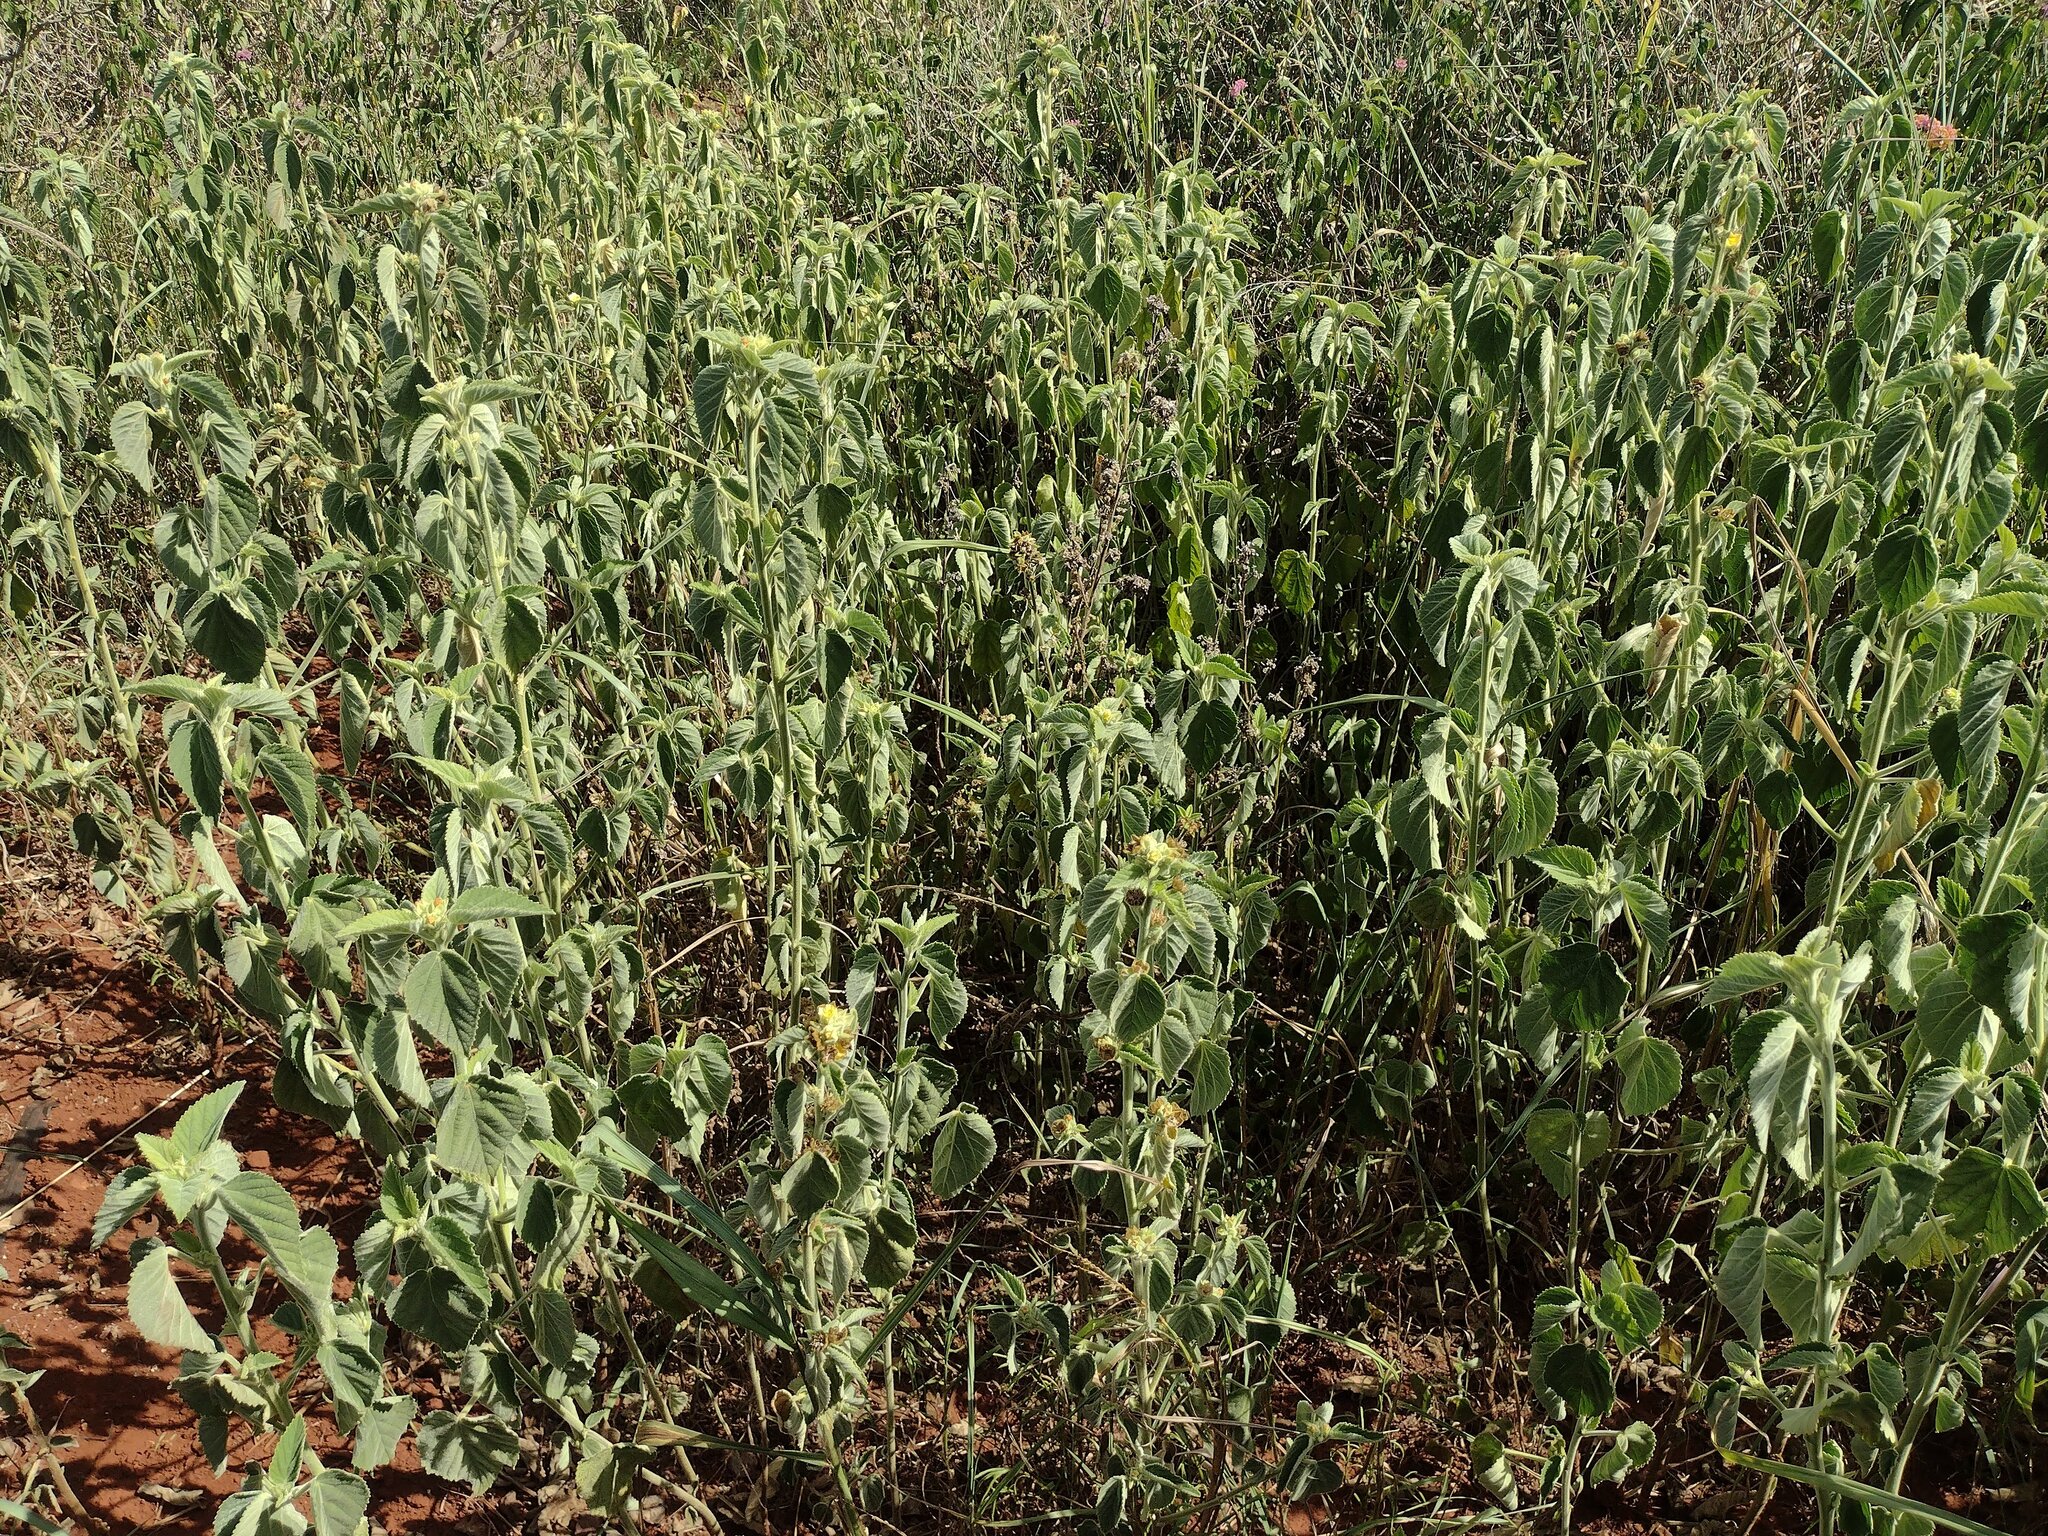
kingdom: Plantae
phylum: Tracheophyta
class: Magnoliopsida
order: Malvales
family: Malvaceae
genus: Sida
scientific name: Sida cordifolia
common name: Ilima
